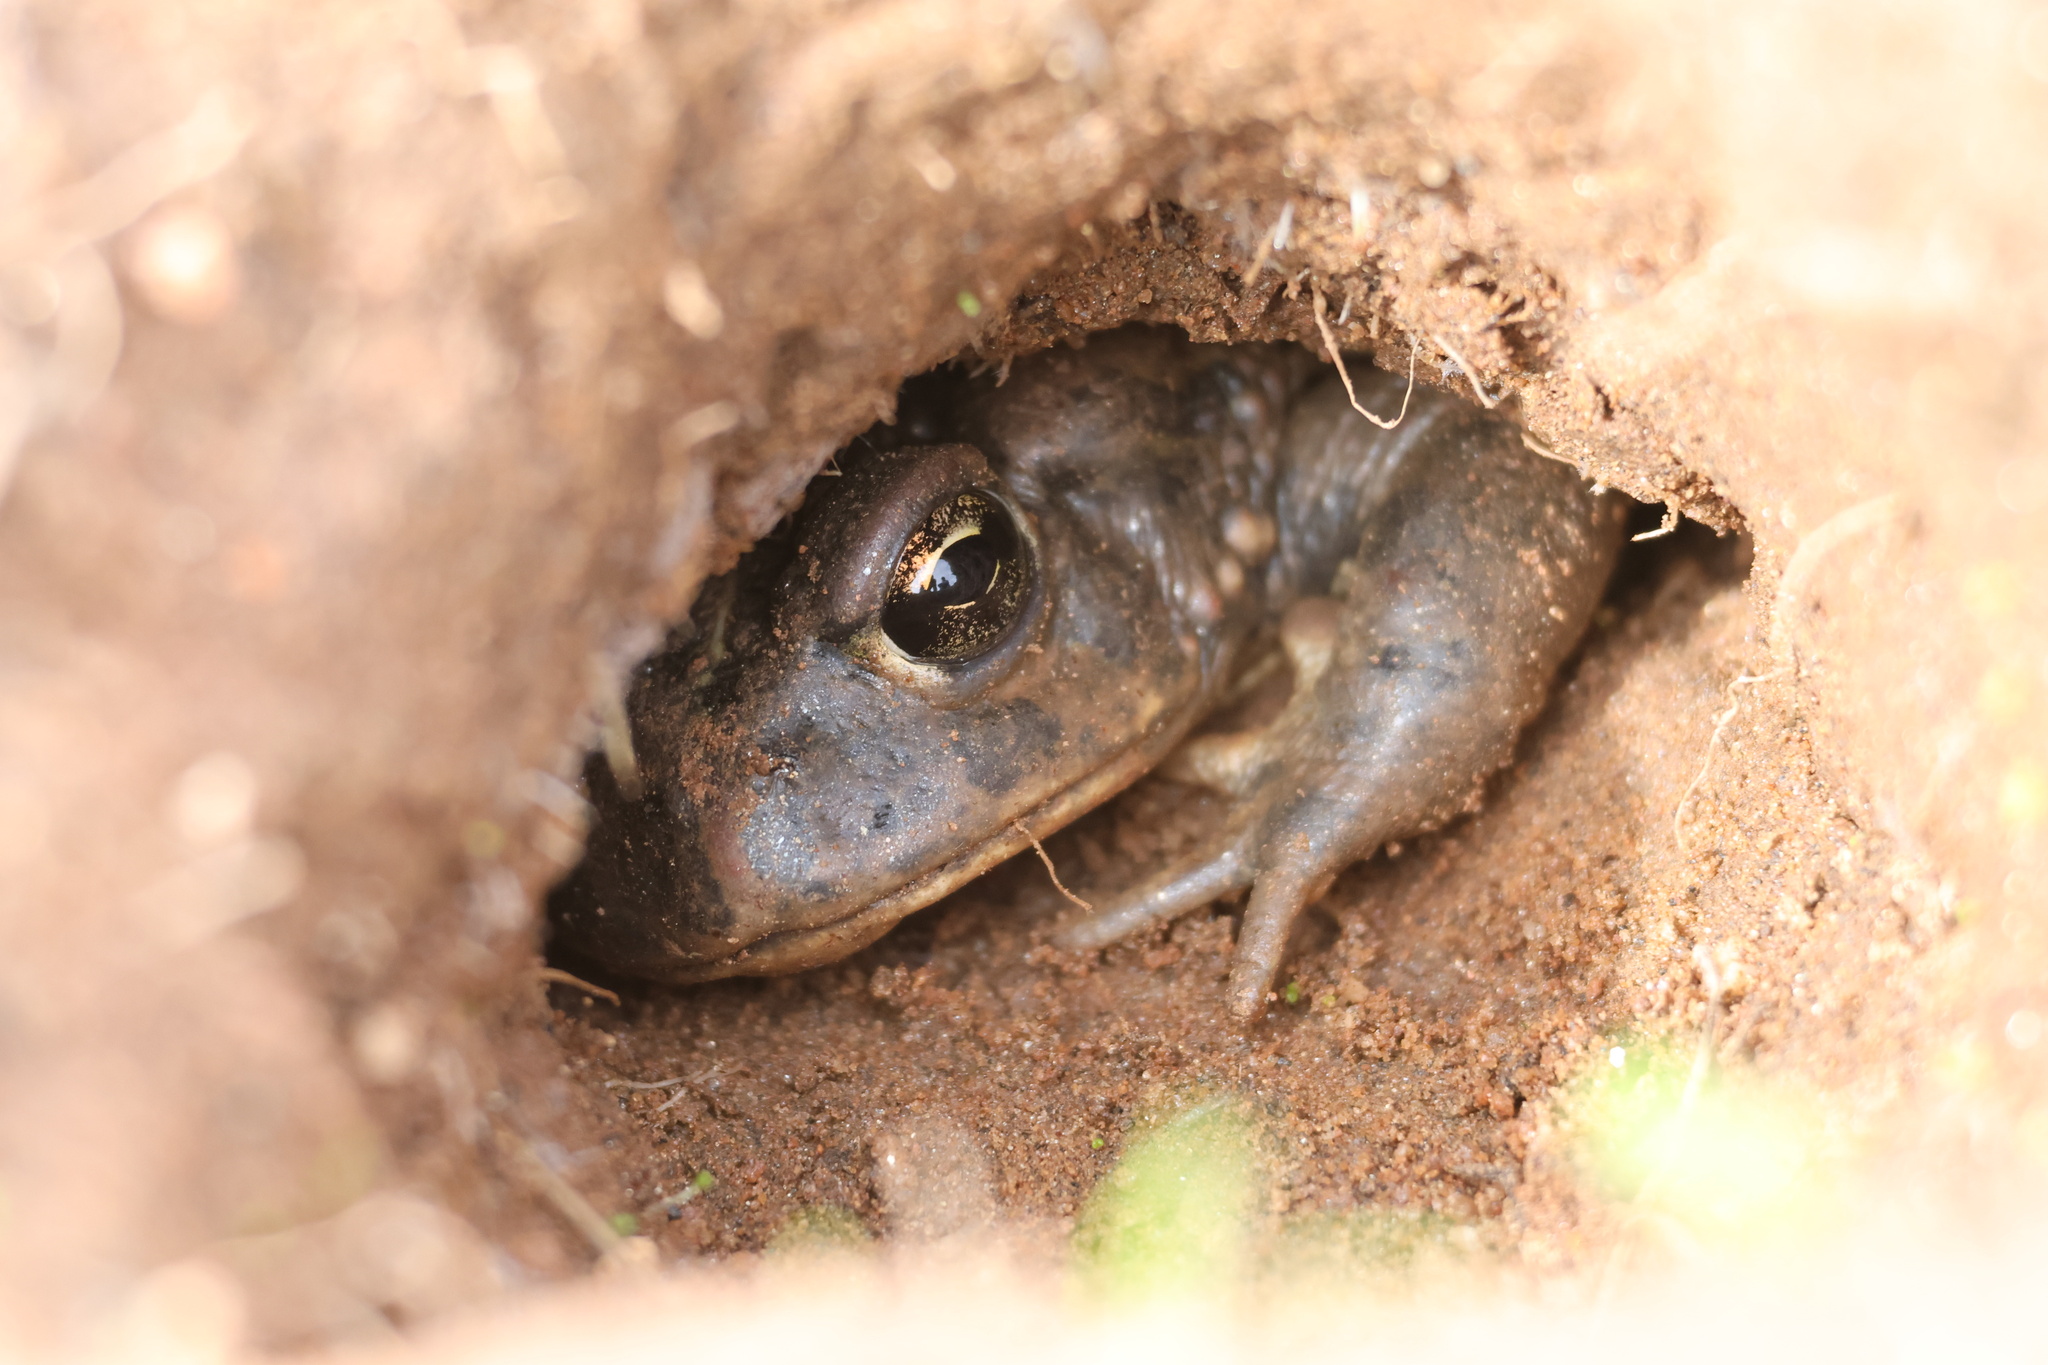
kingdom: Animalia
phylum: Chordata
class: Amphibia
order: Anura
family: Bufonidae
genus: Anaxyrus
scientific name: Anaxyrus boreas
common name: Western toad
